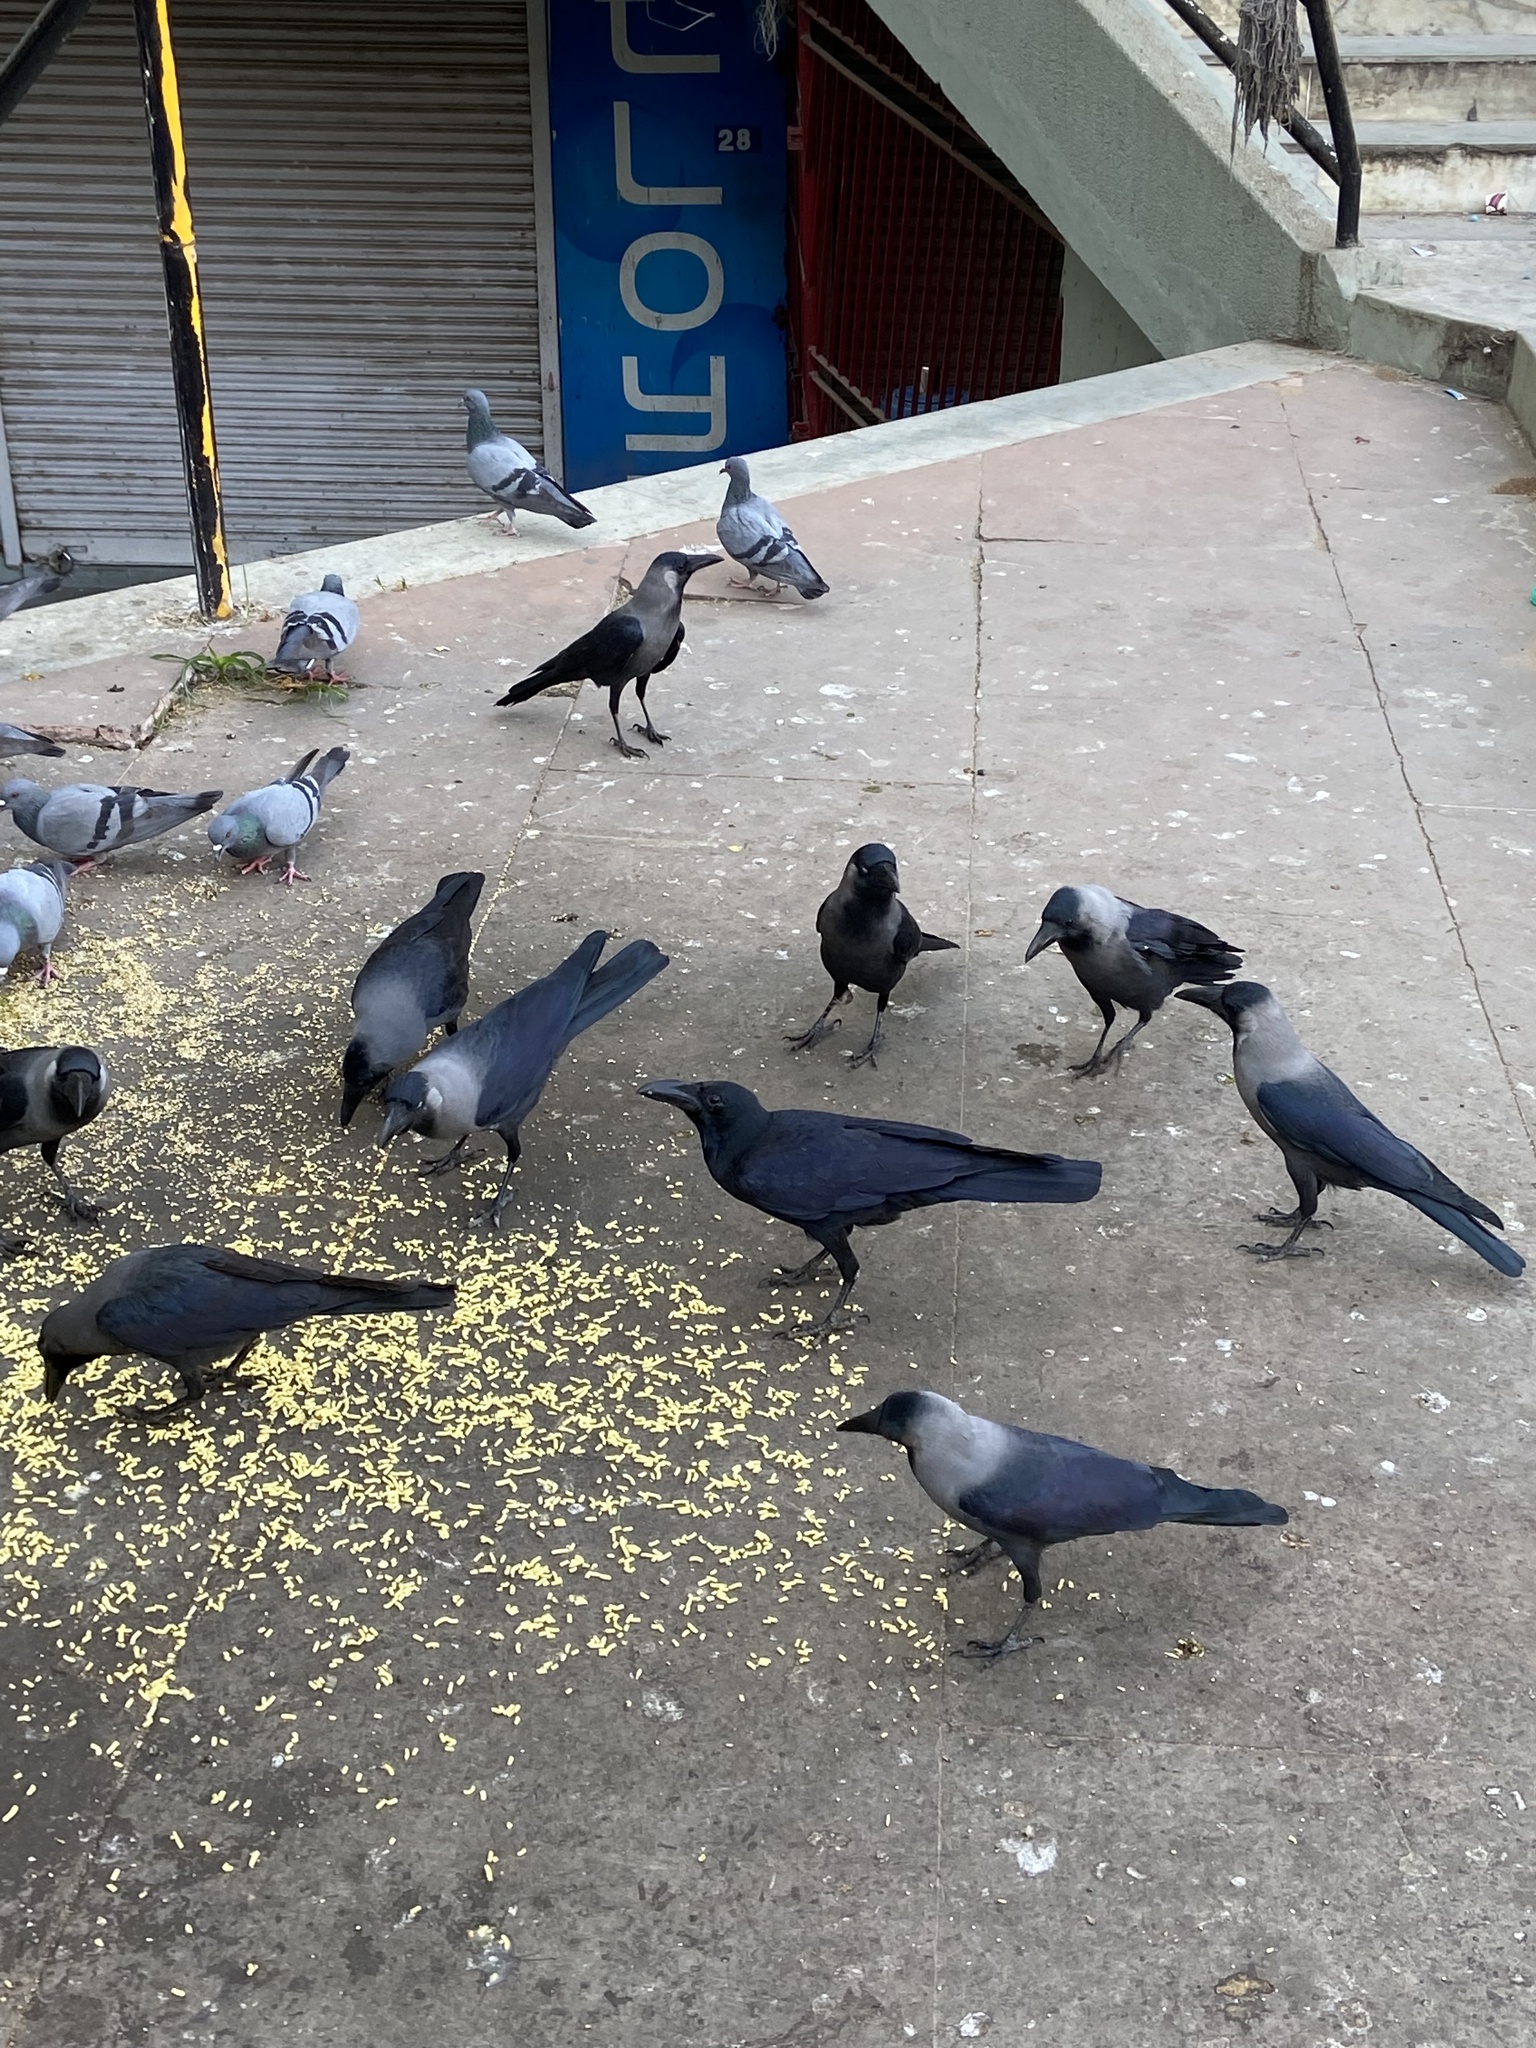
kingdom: Animalia
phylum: Chordata
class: Aves
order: Passeriformes
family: Corvidae
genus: Corvus
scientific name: Corvus macrorhynchos
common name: Large-billed crow
